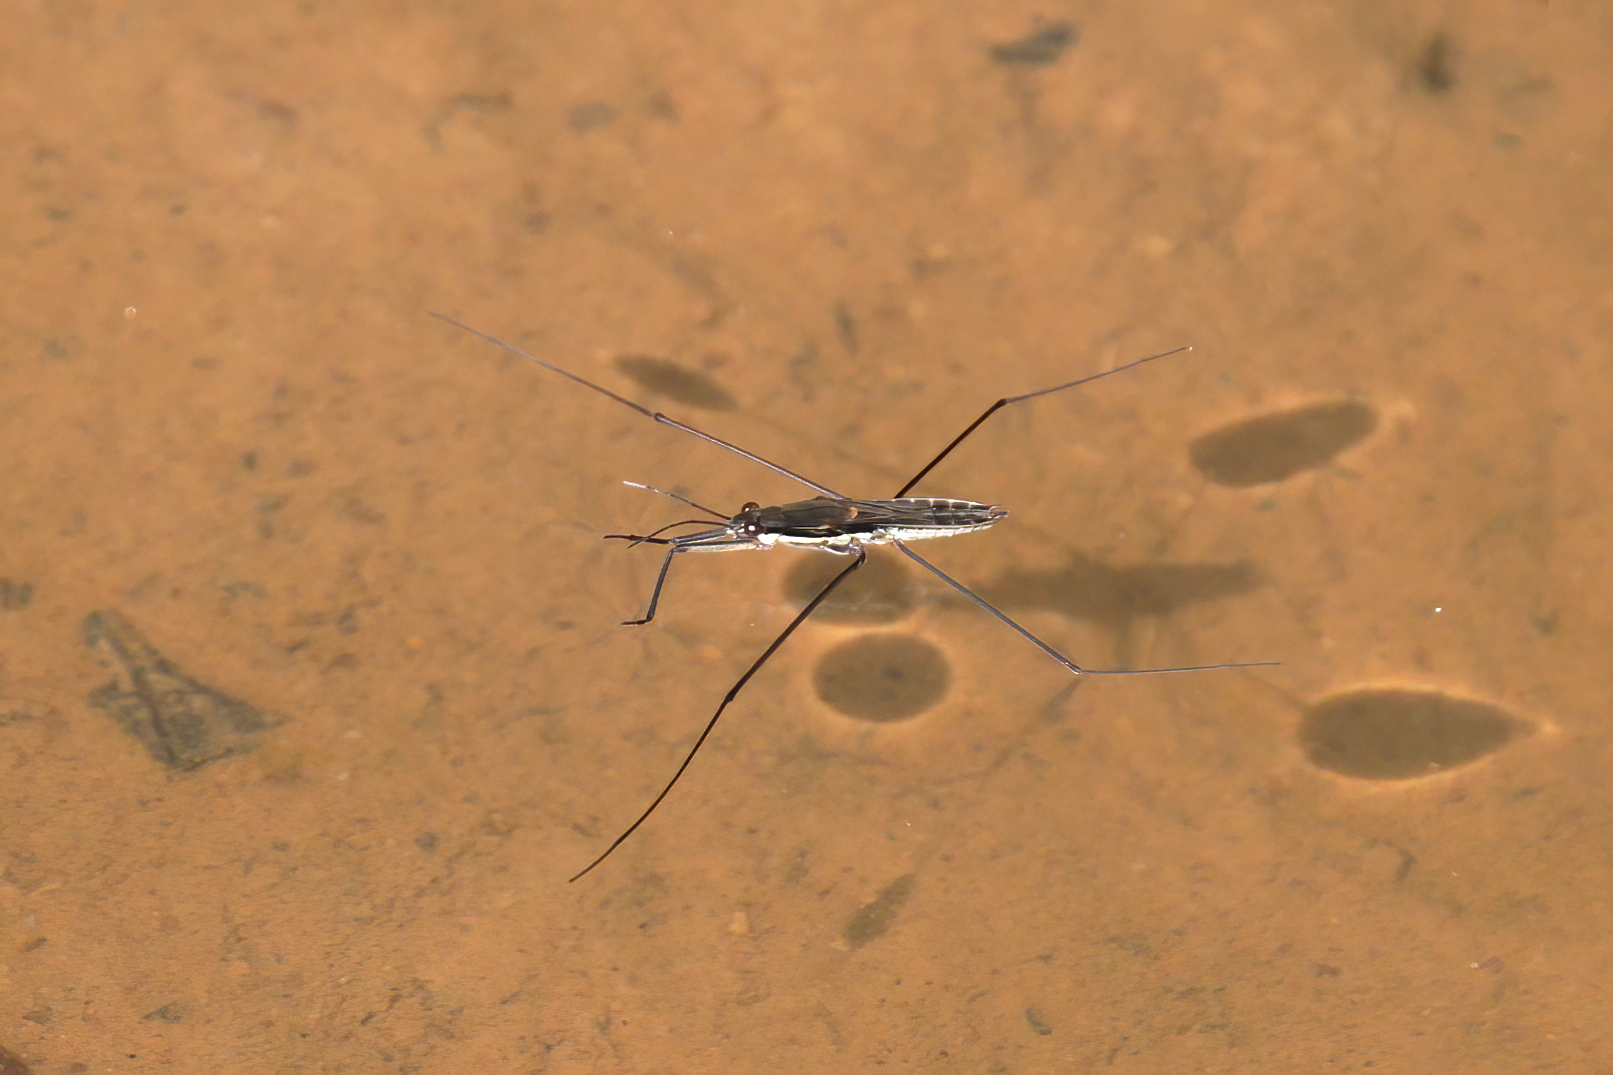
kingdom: Animalia
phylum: Arthropoda
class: Insecta
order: Hemiptera
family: Gerridae
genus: Aquarius
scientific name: Aquarius
